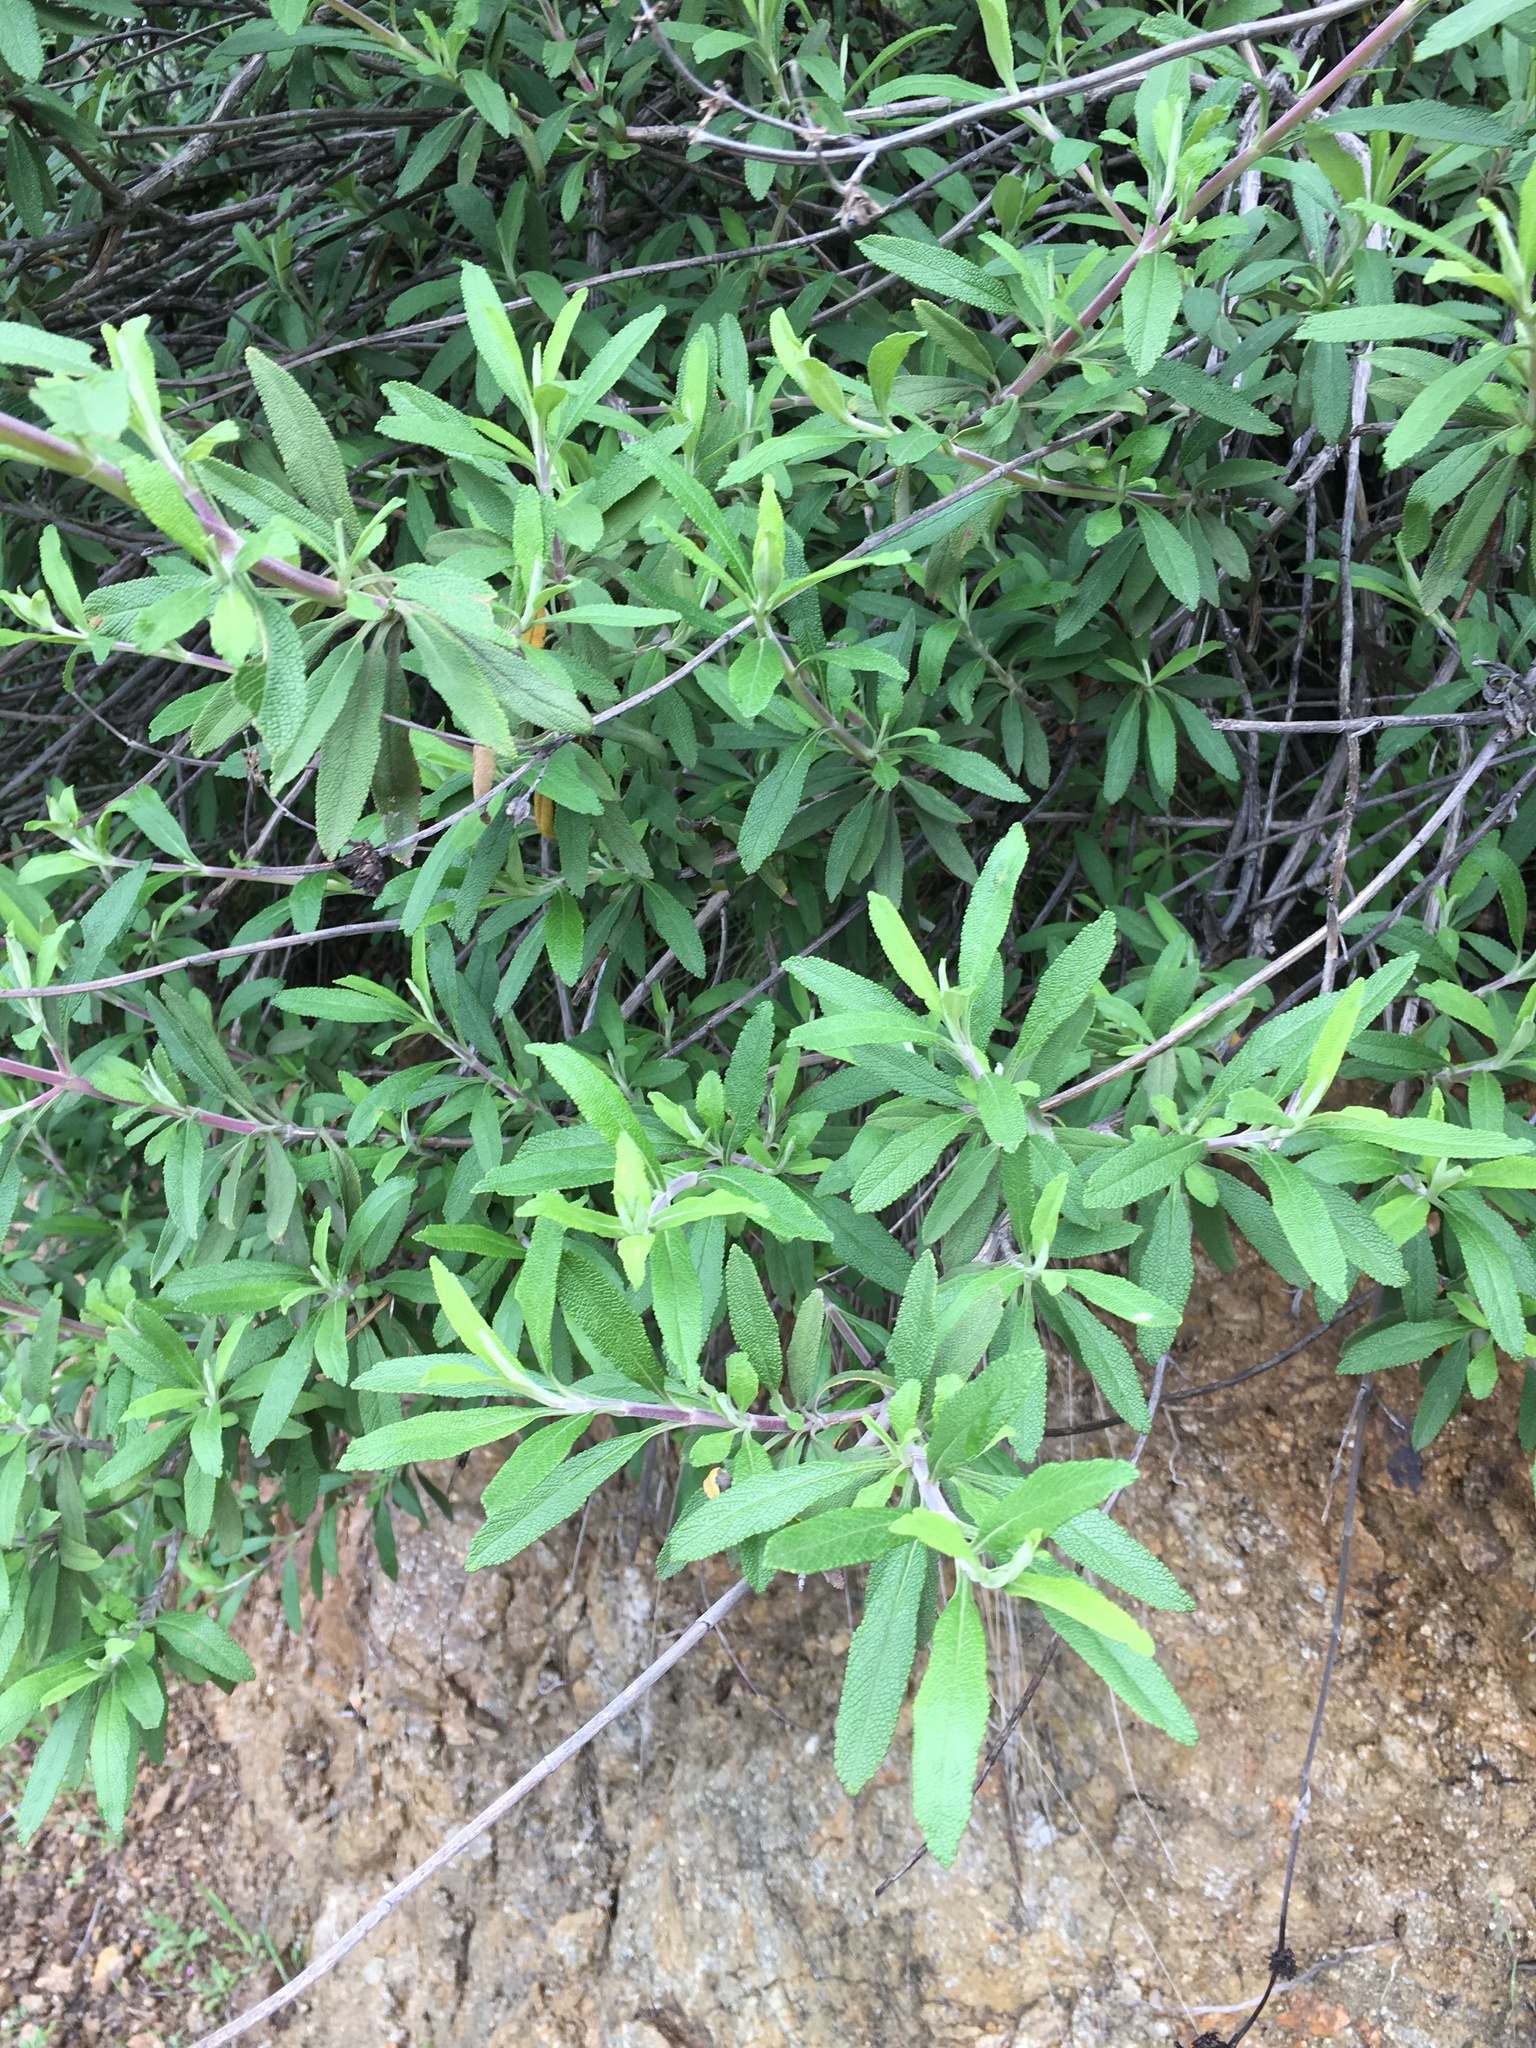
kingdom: Plantae
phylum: Tracheophyta
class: Magnoliopsida
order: Lamiales
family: Lamiaceae
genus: Salvia
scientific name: Salvia mellifera
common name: Black sage
